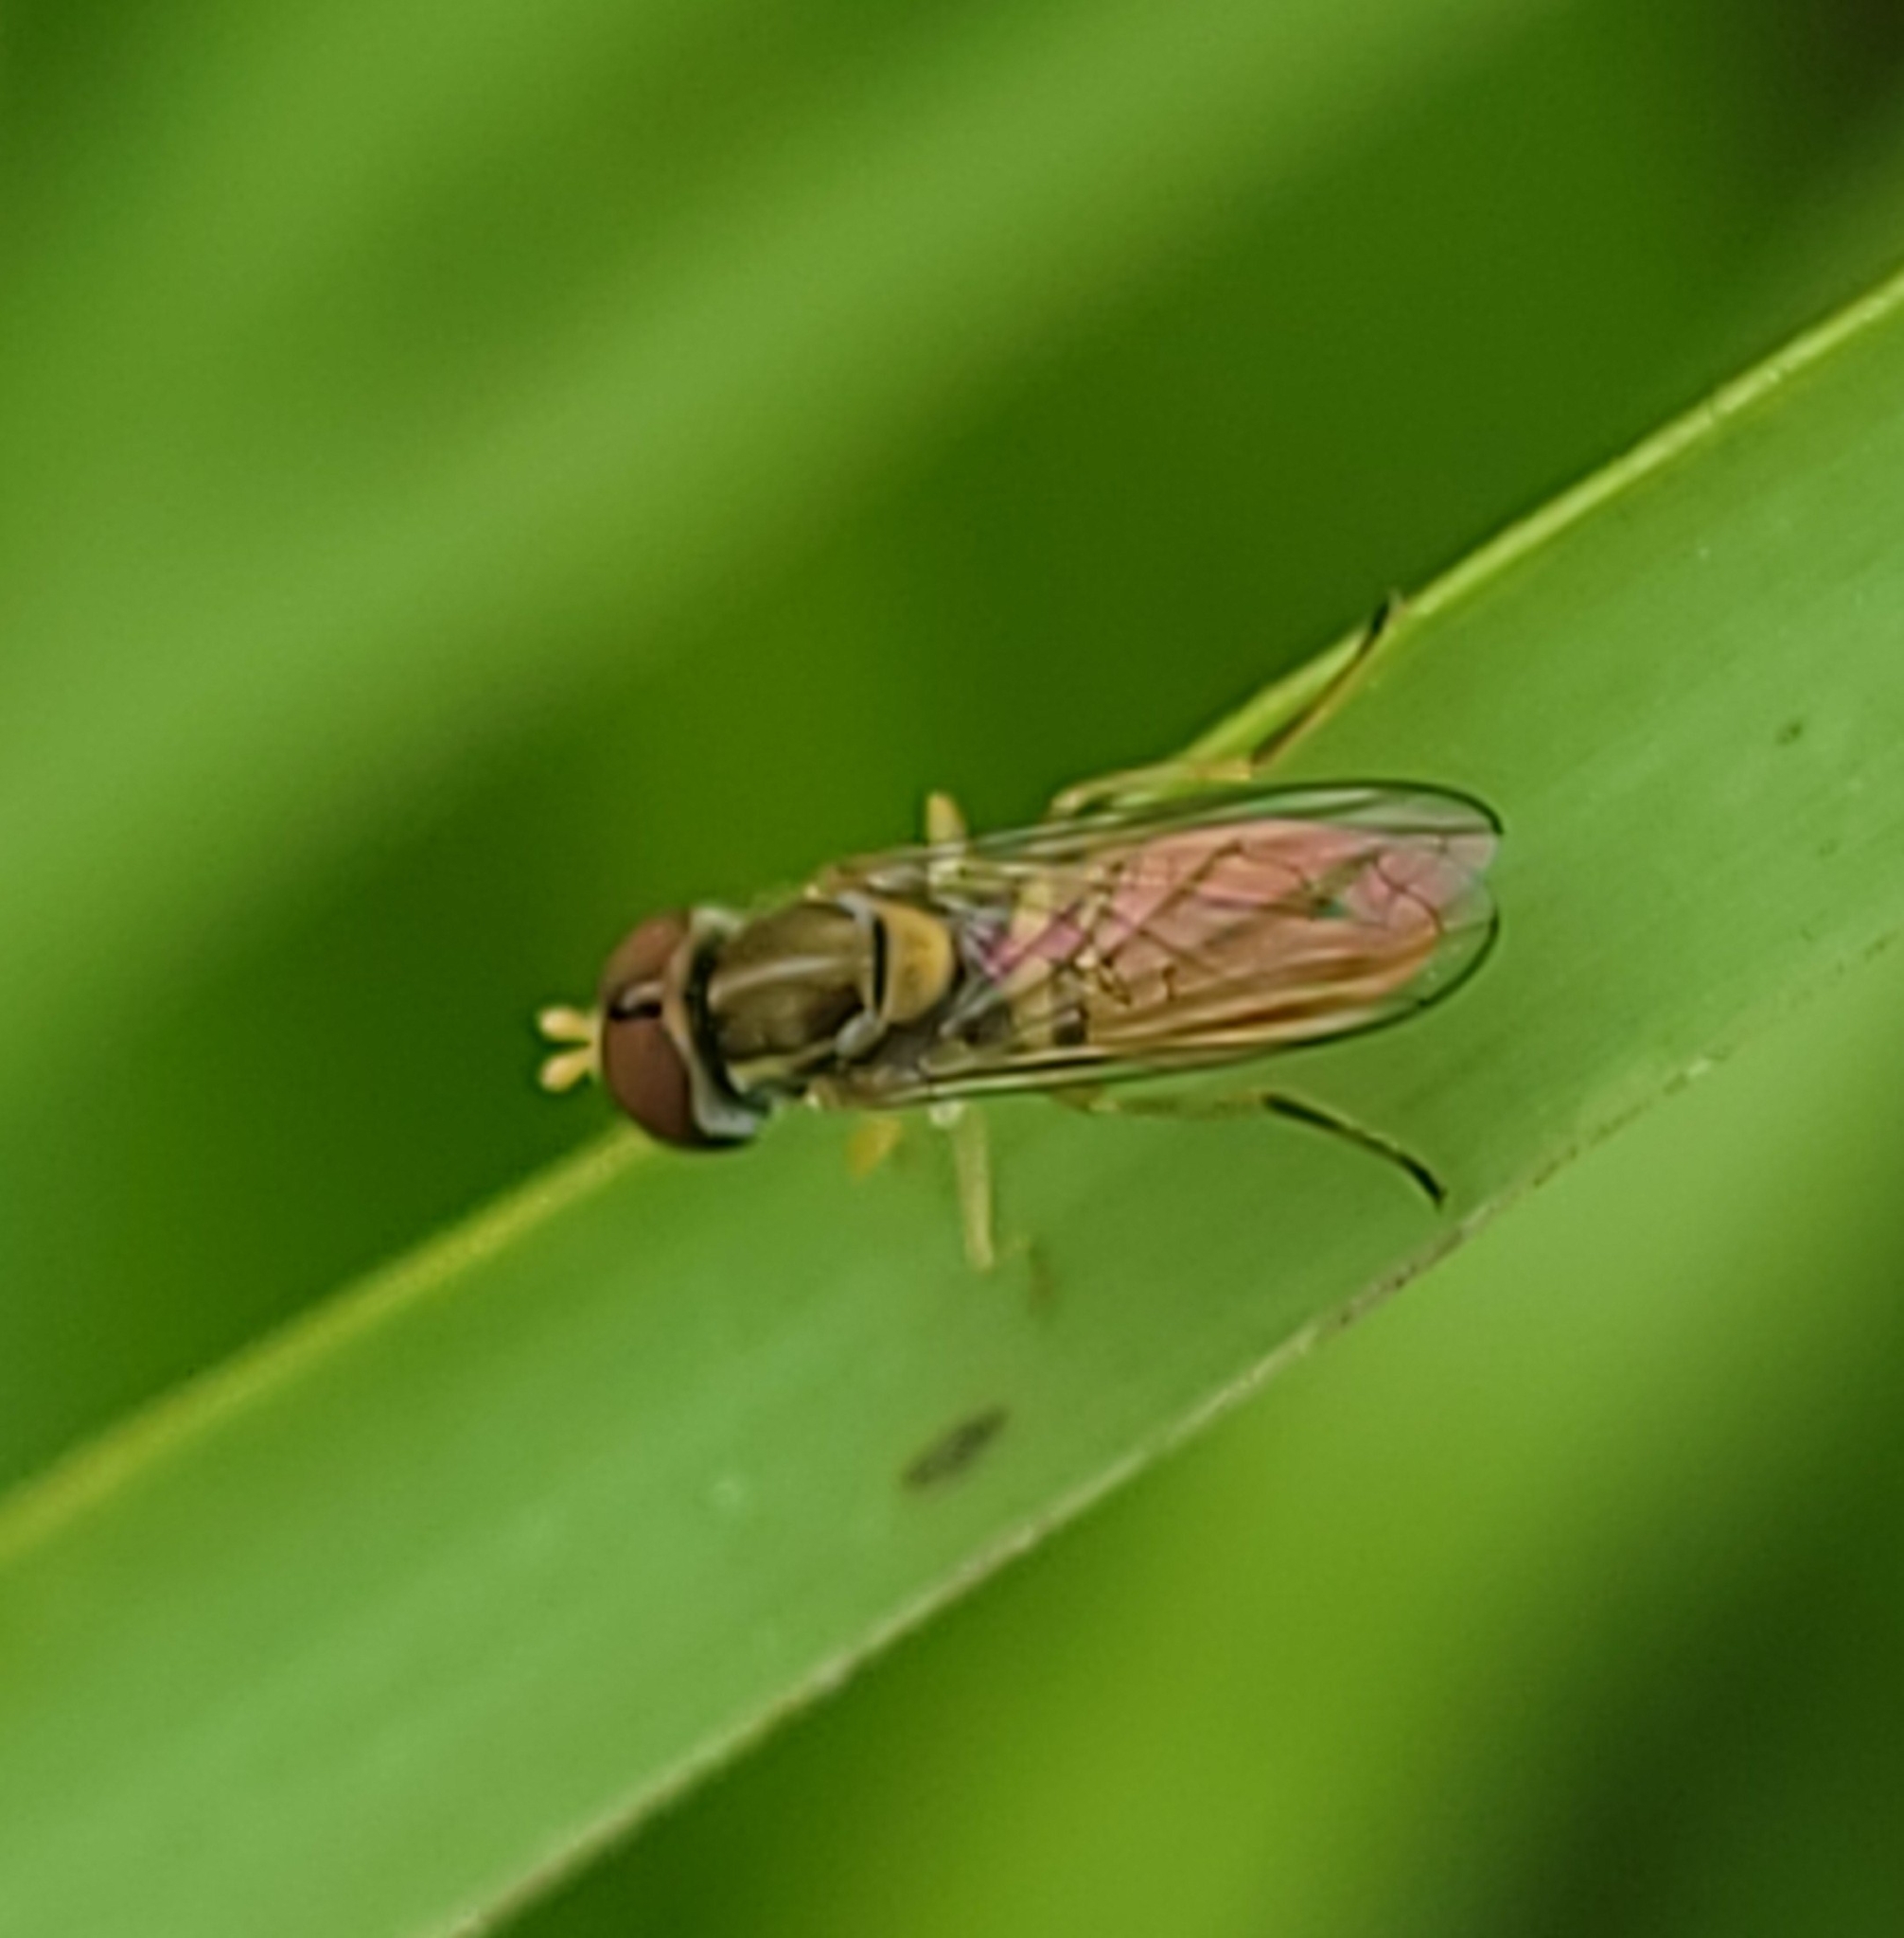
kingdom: Animalia
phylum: Arthropoda
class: Insecta
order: Diptera
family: Syrphidae
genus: Toxomerus
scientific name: Toxomerus marginatus
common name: Syrphid fly
